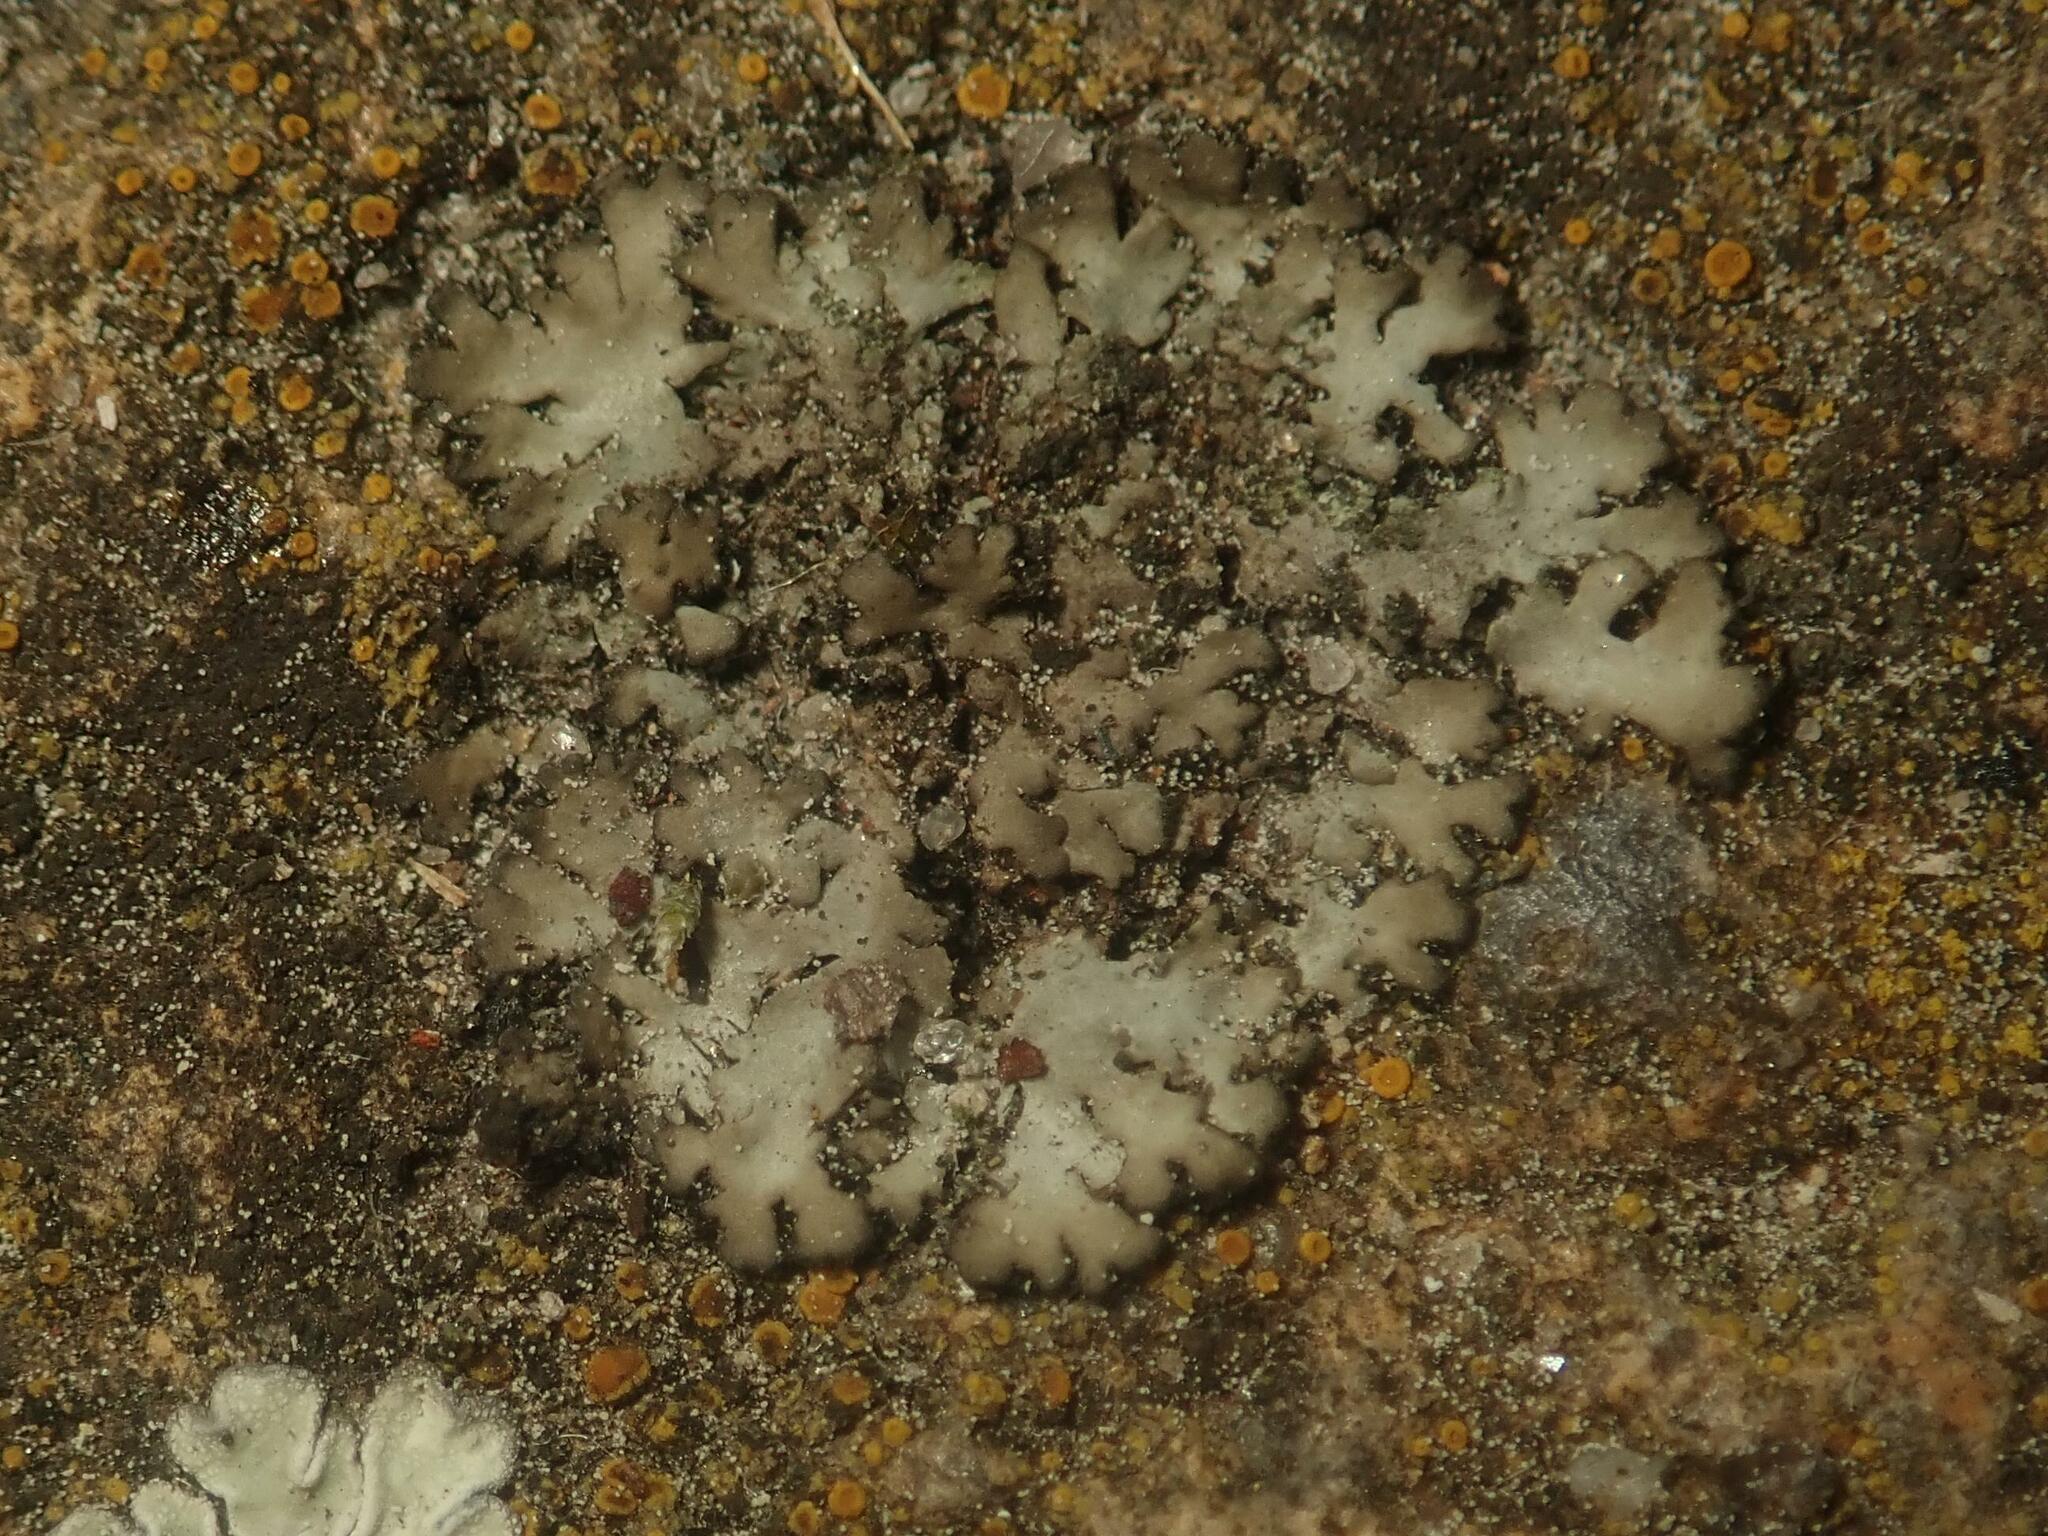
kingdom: Fungi
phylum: Ascomycota
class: Lecanoromycetes
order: Caliciales
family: Physciaceae
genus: Phaeophyscia
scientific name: Phaeophyscia orbicularis
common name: Mealy shadow lichen
